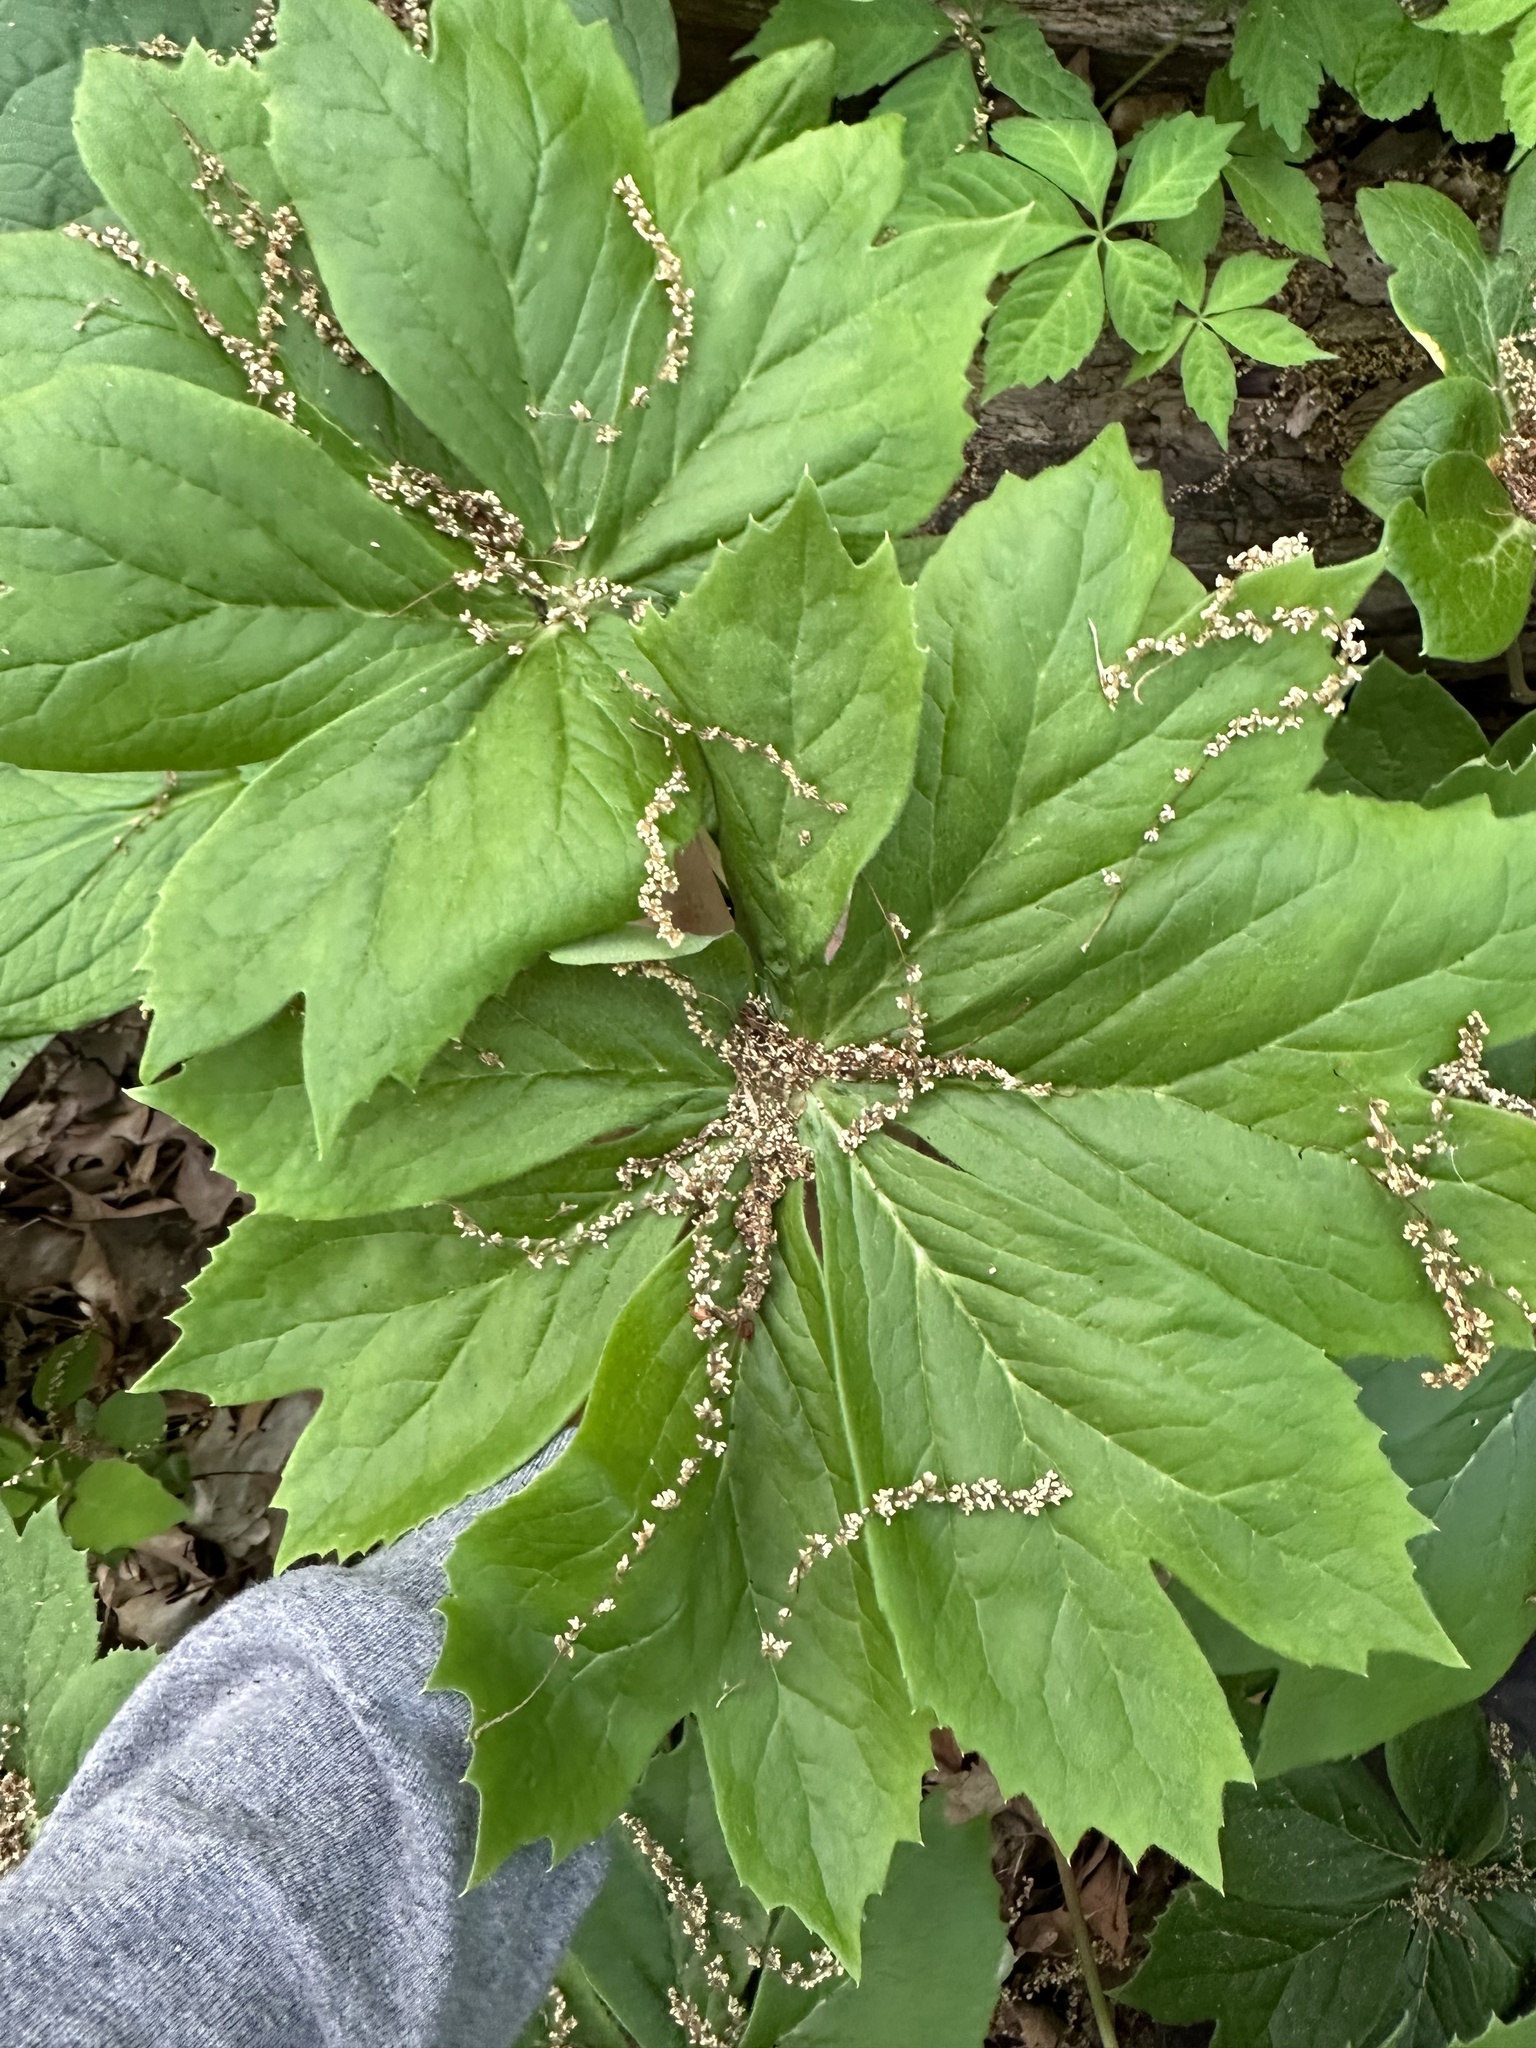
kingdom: Plantae
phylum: Tracheophyta
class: Magnoliopsida
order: Ranunculales
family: Berberidaceae
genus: Podophyllum
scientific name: Podophyllum peltatum
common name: Wild mandrake
